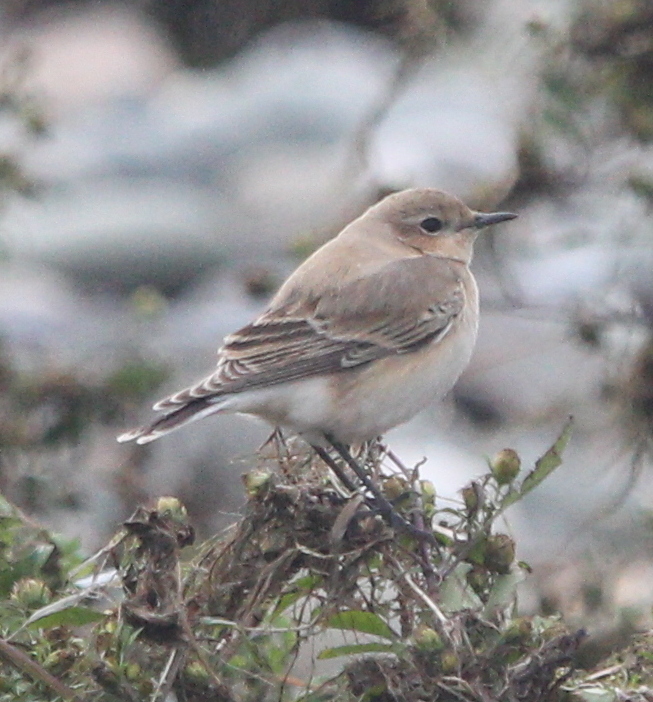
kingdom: Animalia
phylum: Chordata
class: Aves
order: Passeriformes
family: Muscicapidae
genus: Oenanthe
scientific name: Oenanthe oenanthe
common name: Northern wheatear
